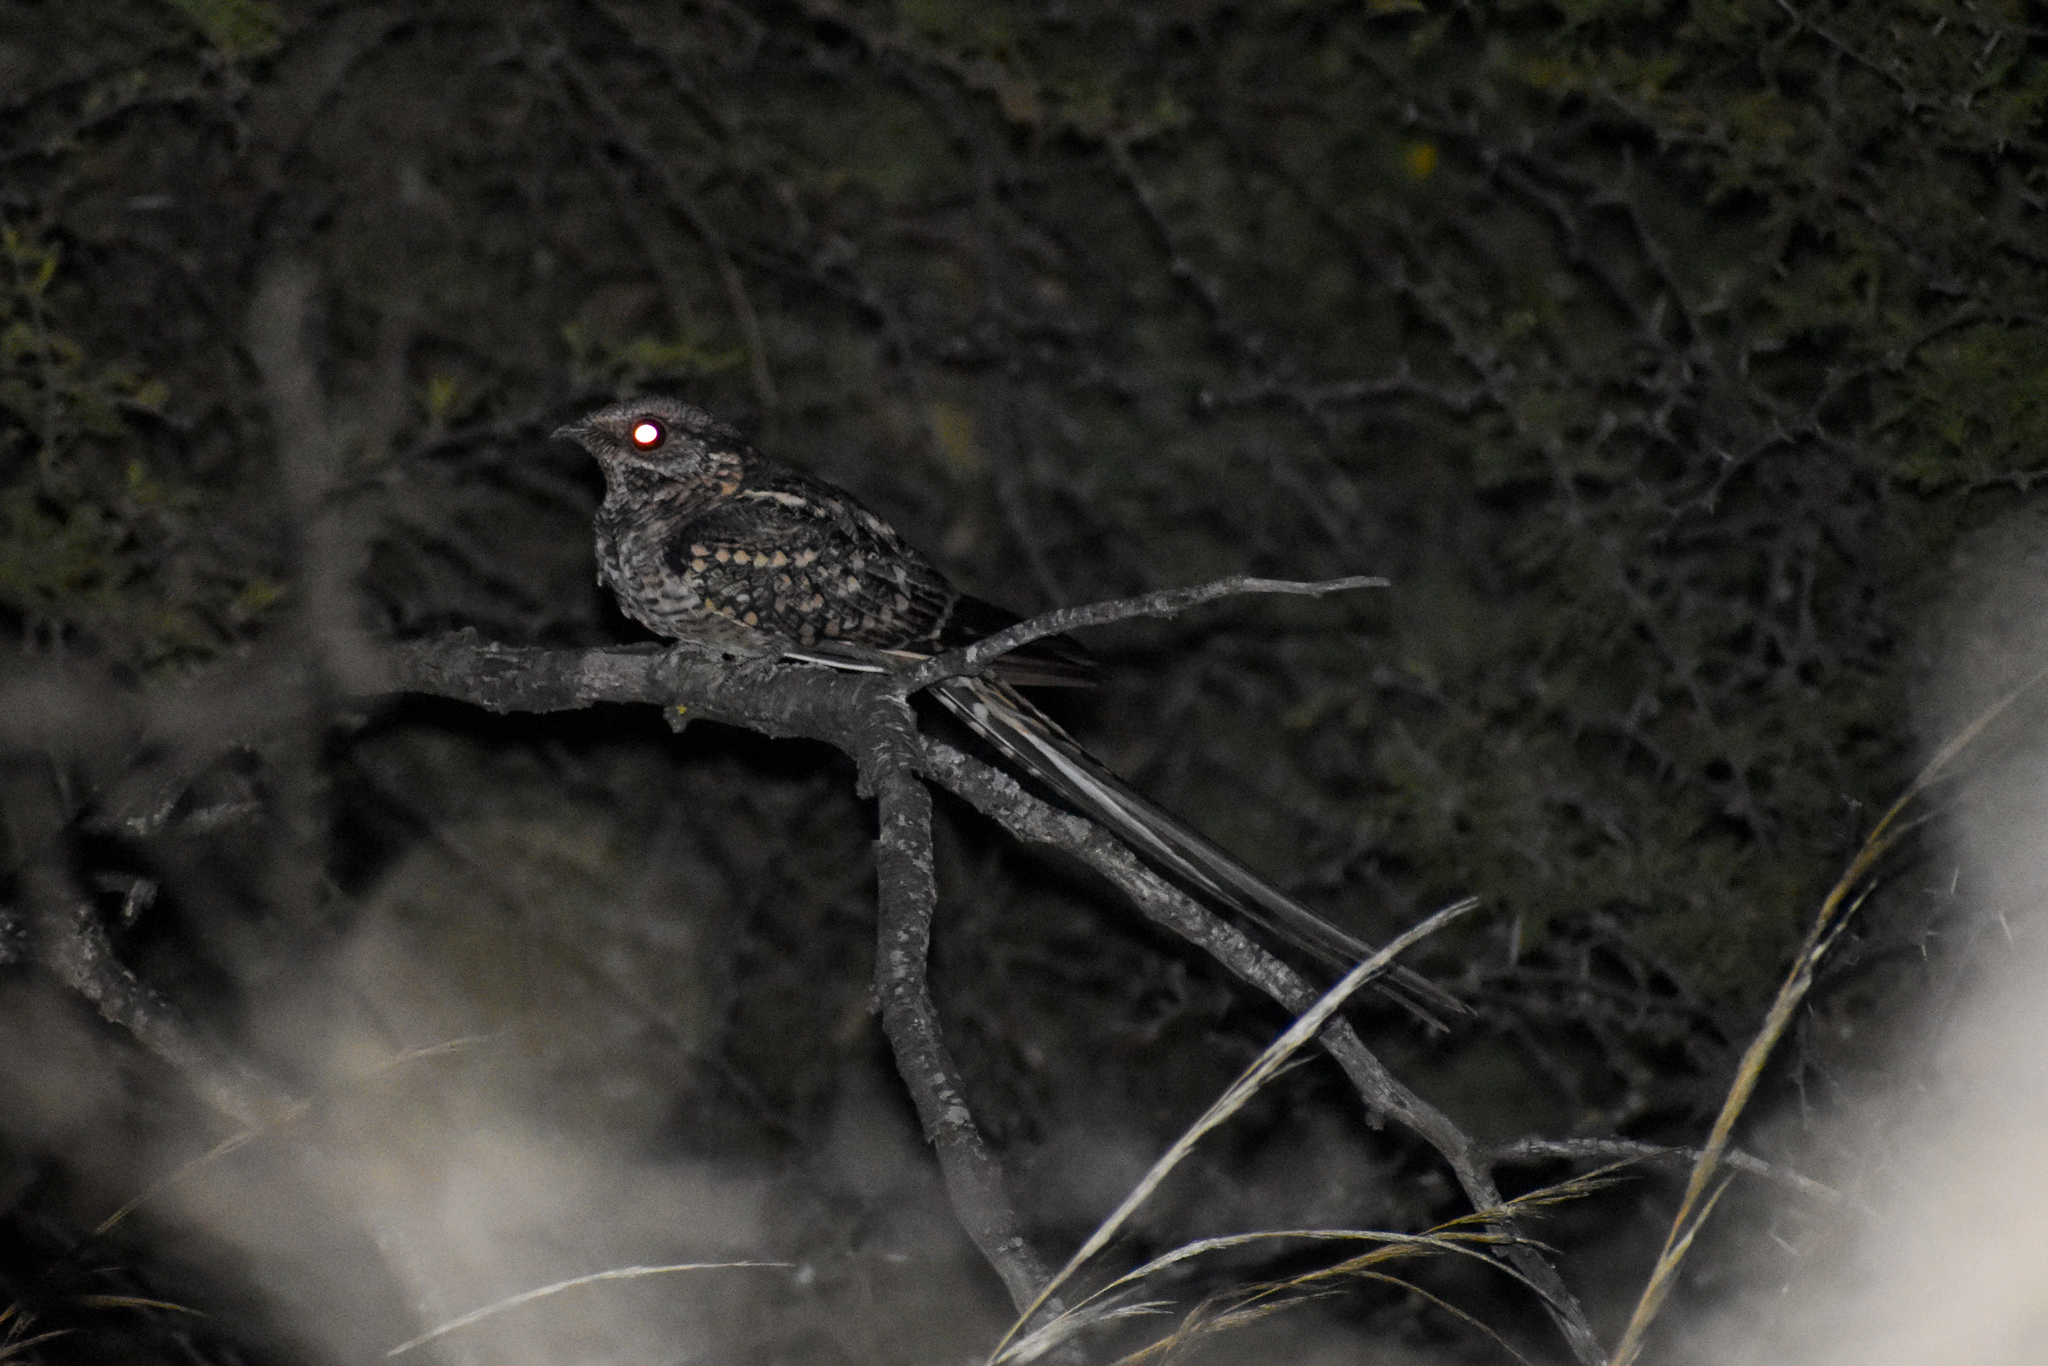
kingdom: Animalia
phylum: Chordata
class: Aves
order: Caprimulgiformes
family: Caprimulgidae
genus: Hydropsalis
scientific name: Hydropsalis torquata
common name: Scissor-tailed nightjar
